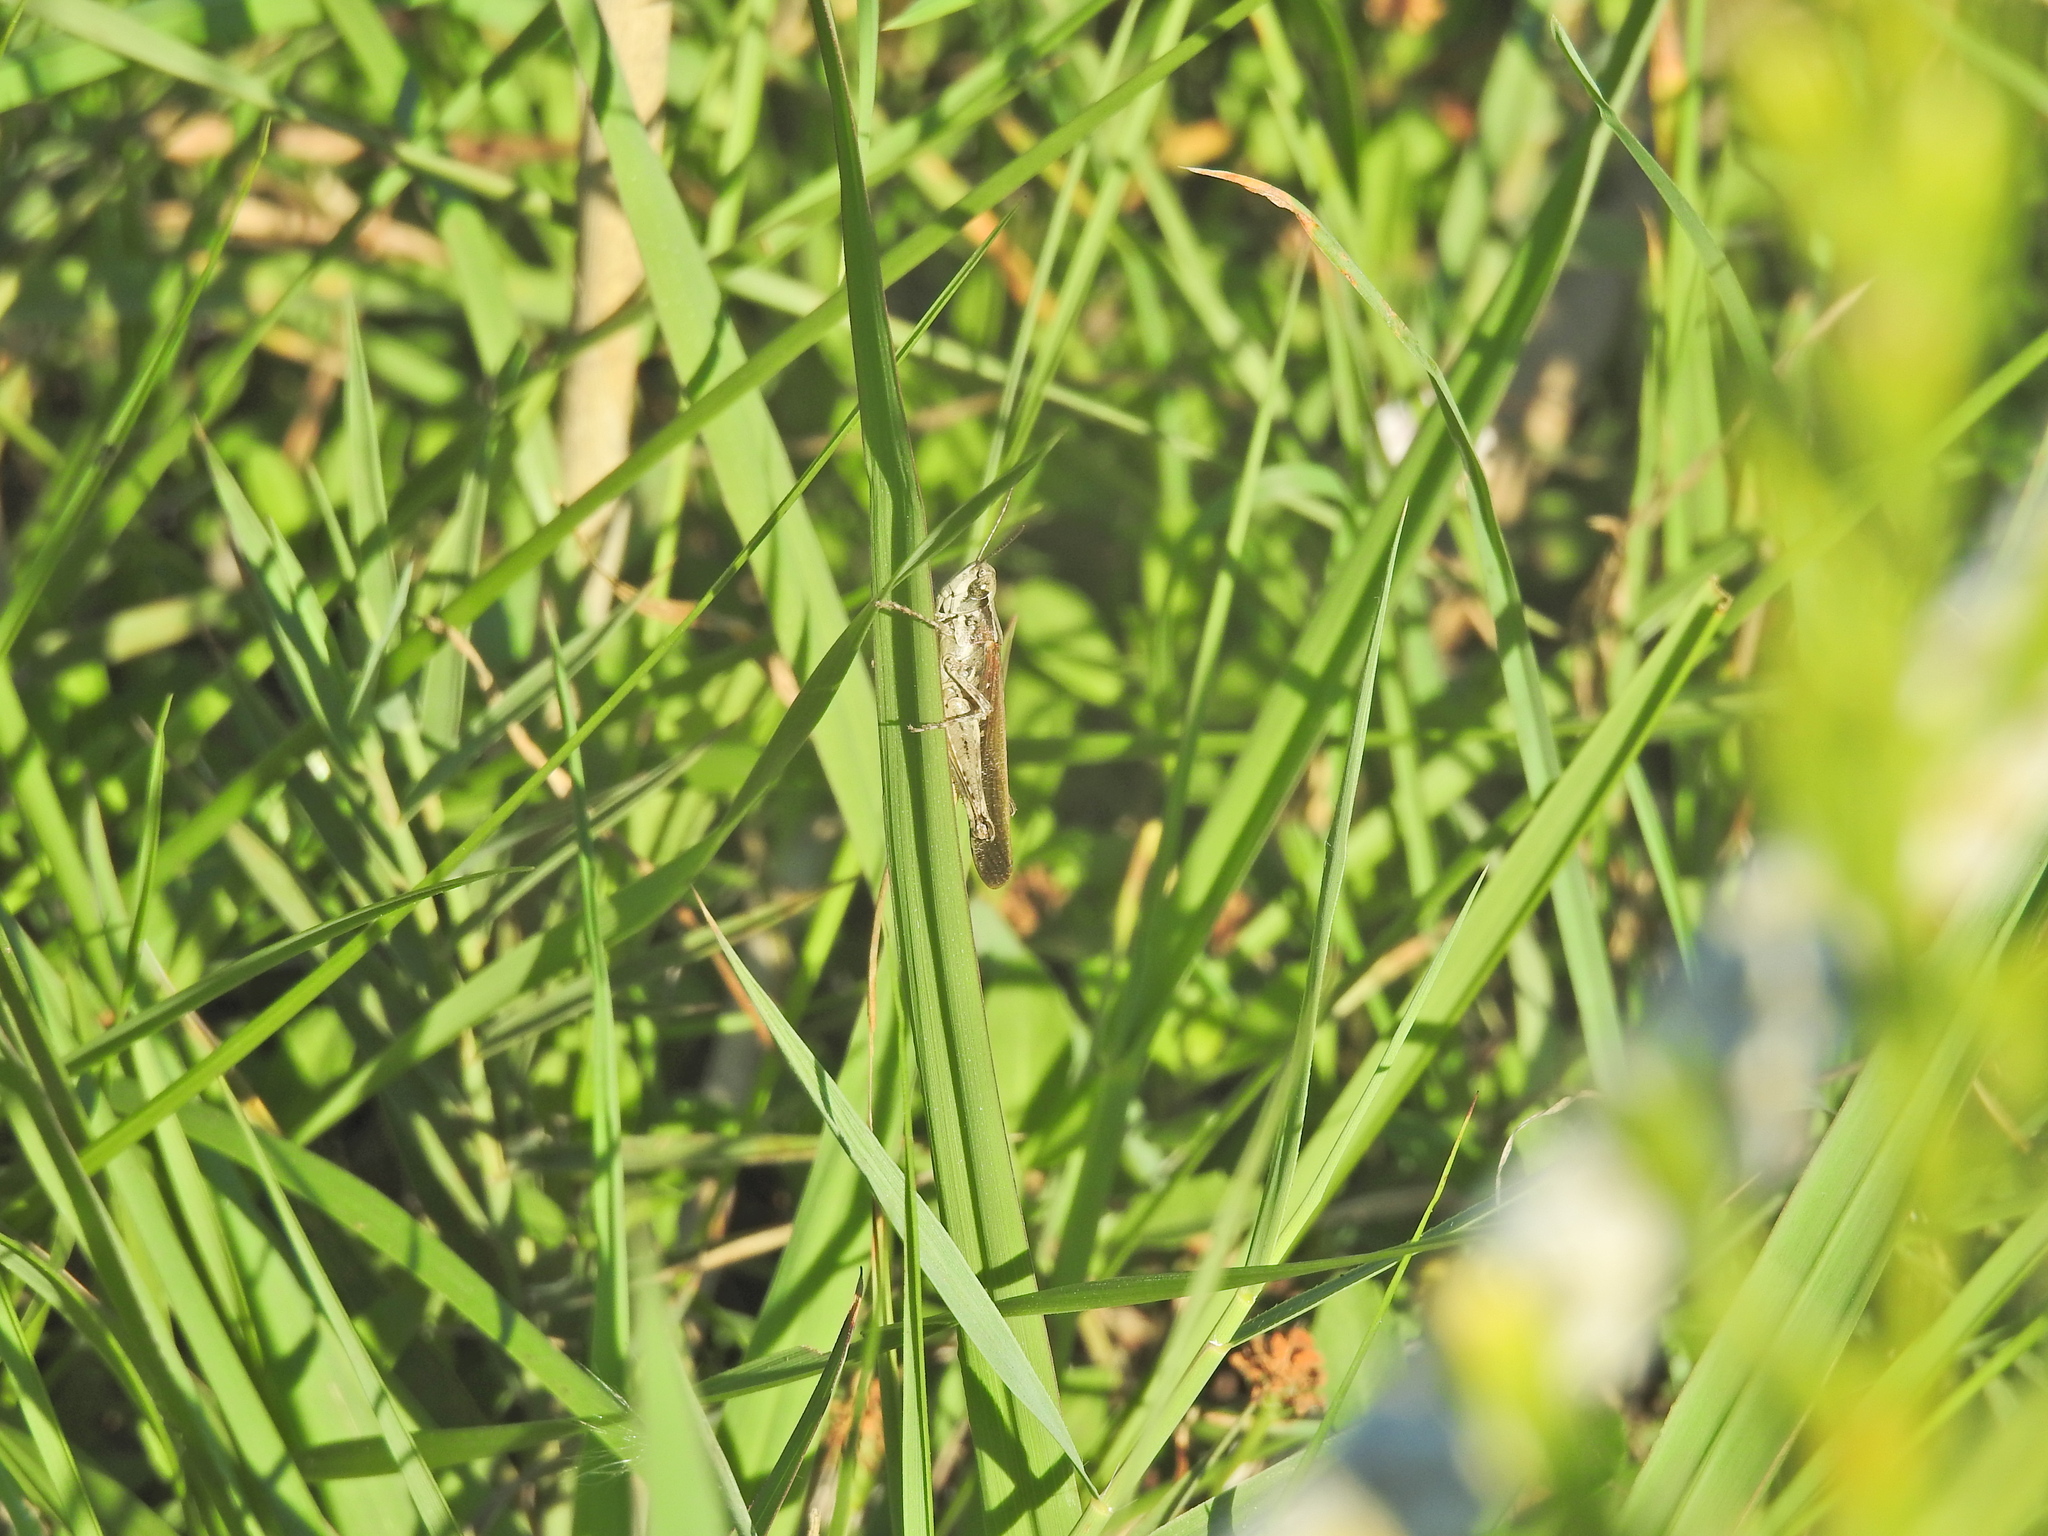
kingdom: Animalia
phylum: Arthropoda
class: Insecta
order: Orthoptera
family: Acrididae
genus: Aiolopus
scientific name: Aiolopus puissanti
